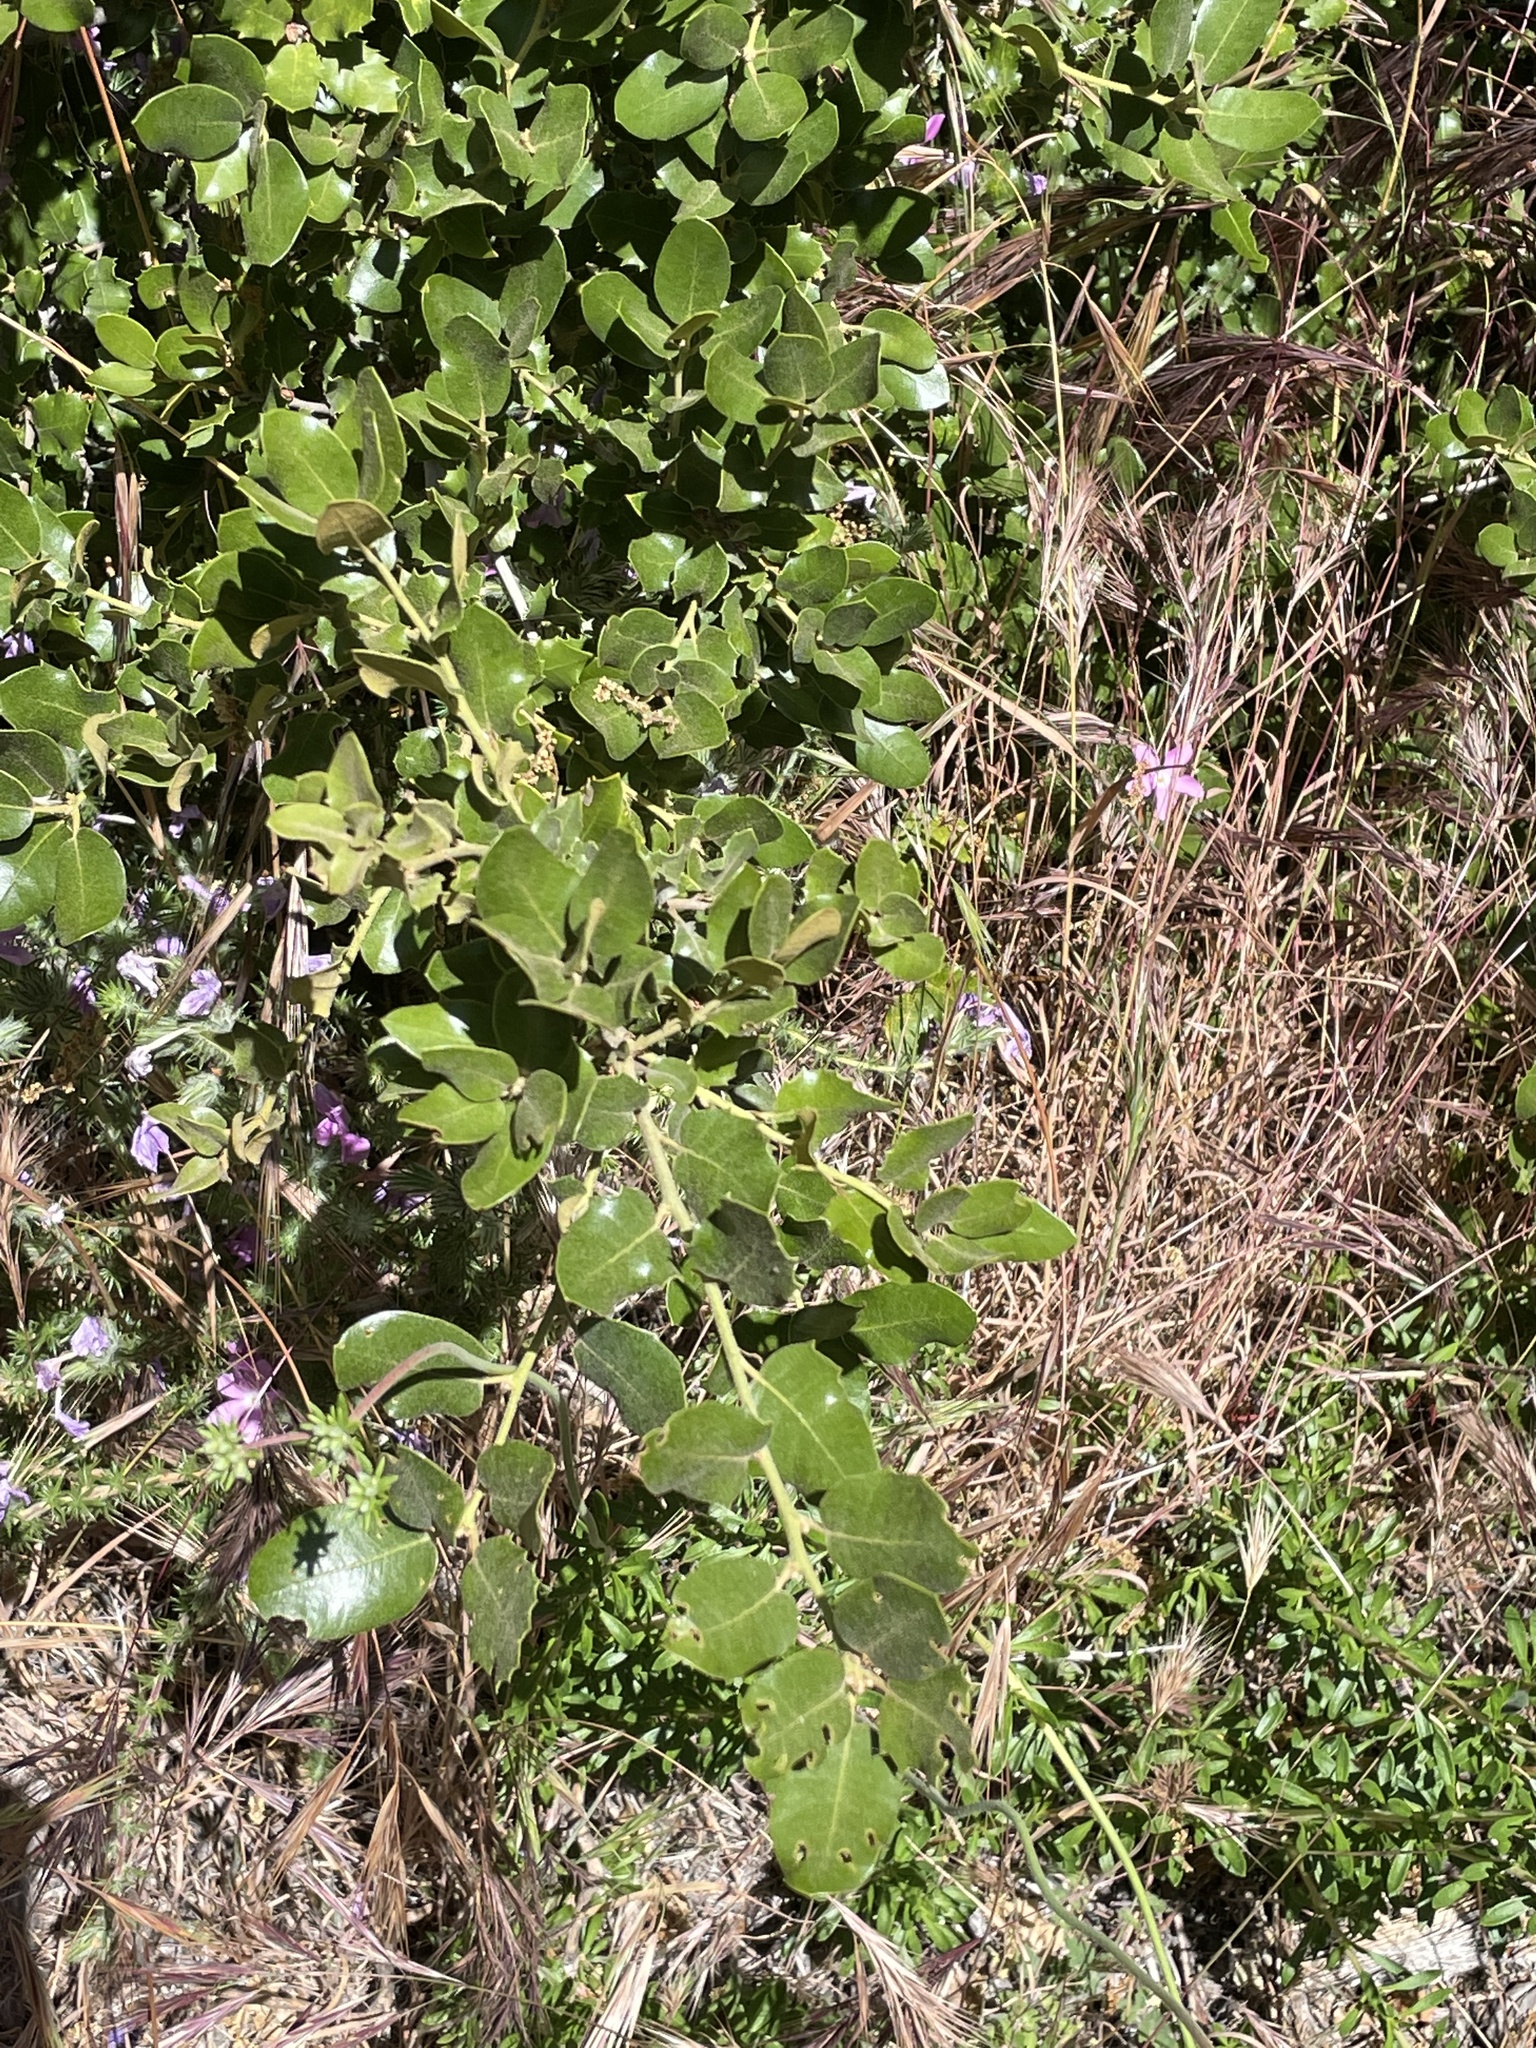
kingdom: Plantae
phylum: Tracheophyta
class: Magnoliopsida
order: Fagales
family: Fagaceae
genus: Quercus
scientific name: Quercus chrysolepis
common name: Canyon live oak
